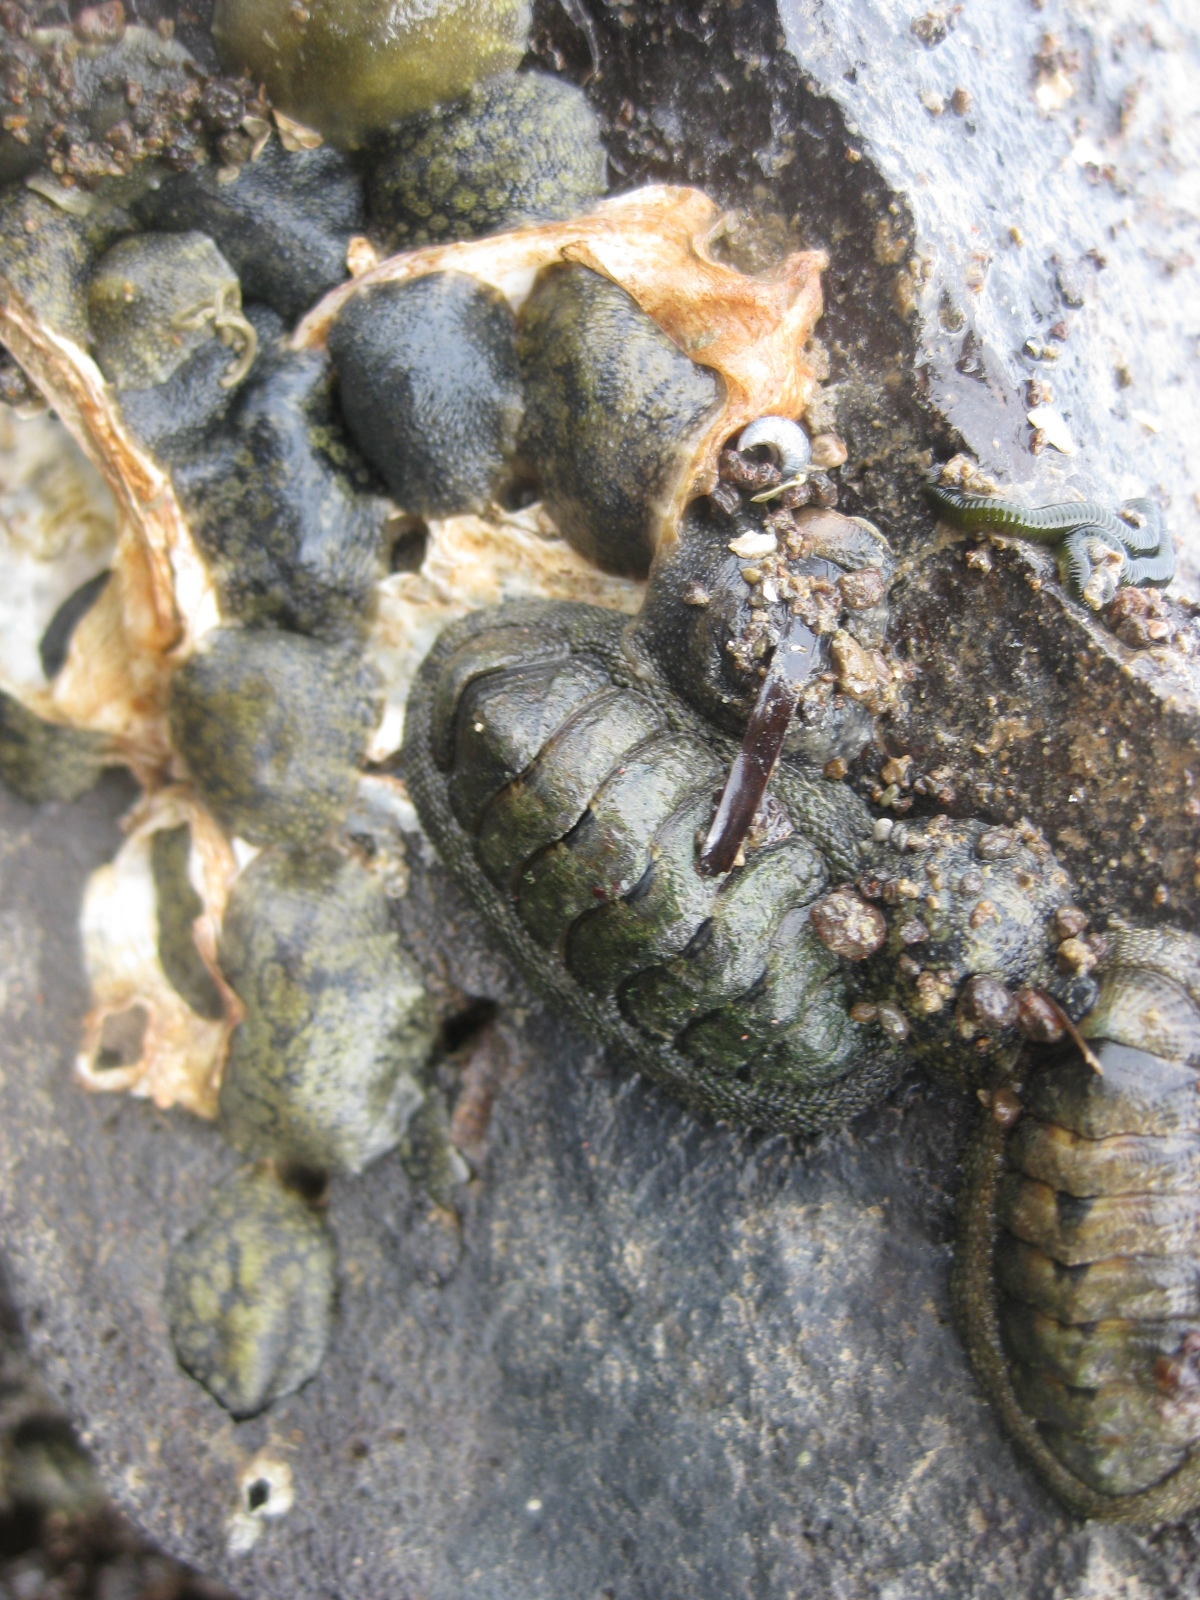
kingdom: Animalia
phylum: Mollusca
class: Polyplacophora
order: Chitonida
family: Chitonidae
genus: Sypharochiton
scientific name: Sypharochiton pelliserpentis
